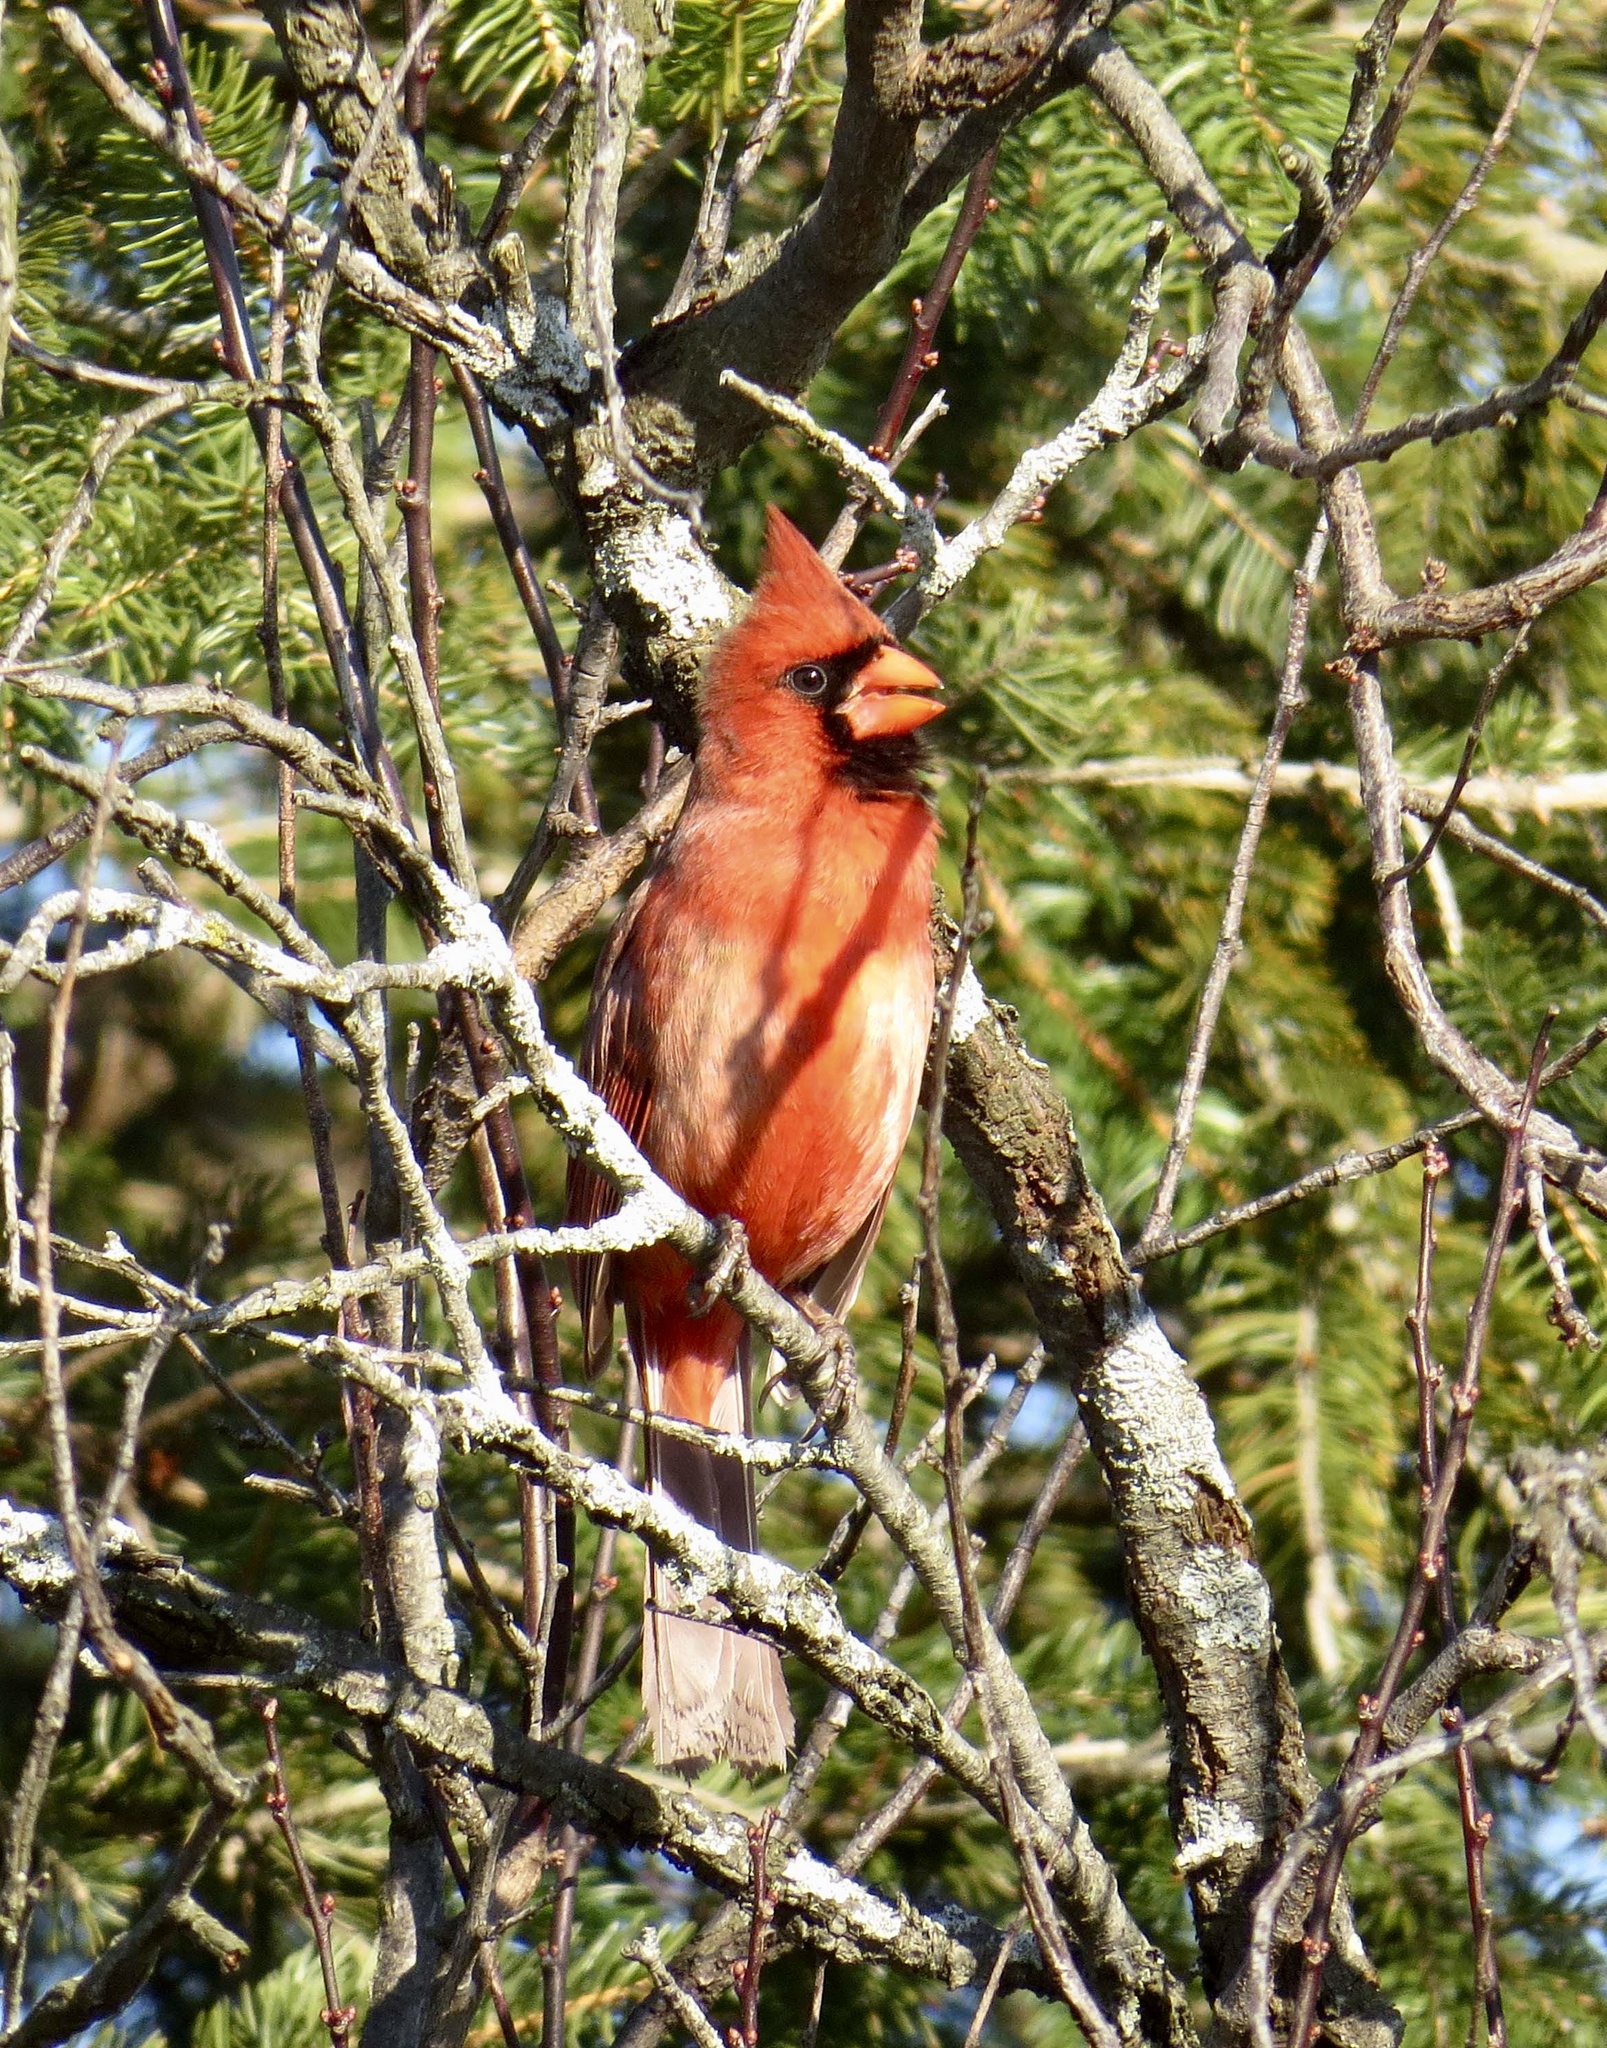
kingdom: Animalia
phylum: Chordata
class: Aves
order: Passeriformes
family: Cardinalidae
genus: Cardinalis
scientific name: Cardinalis cardinalis
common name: Northern cardinal
